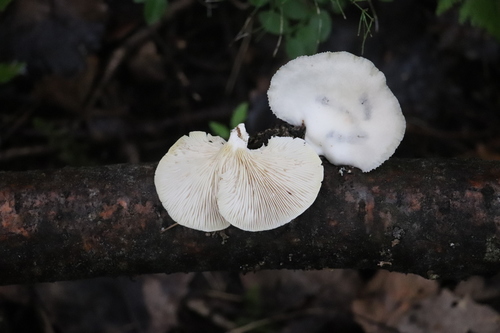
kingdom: Fungi
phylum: Basidiomycota
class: Agaricomycetes
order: Agaricales
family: Pleurotaceae
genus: Pleurotus
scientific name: Pleurotus pulmonarius
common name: Pale oyster
